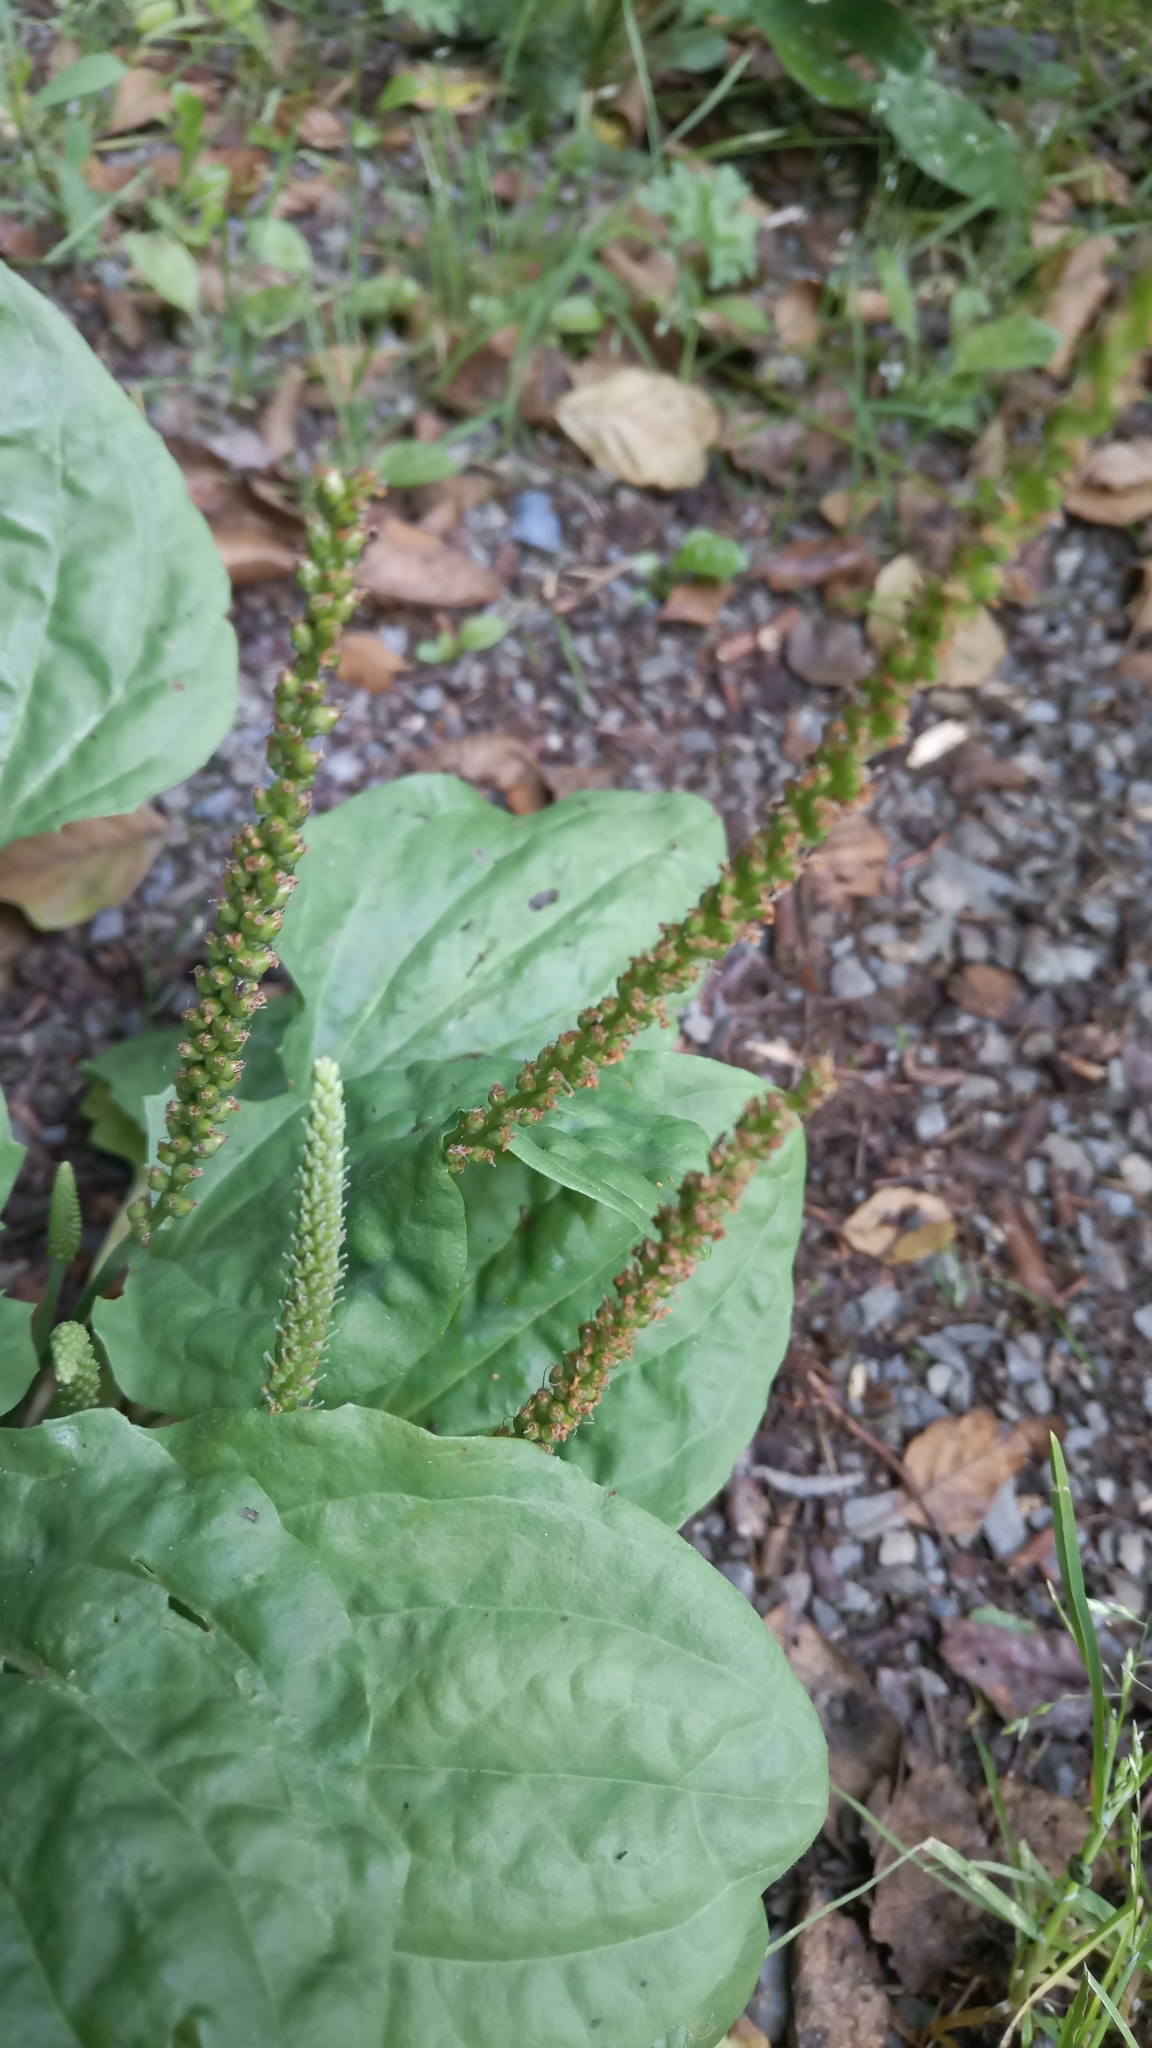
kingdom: Plantae
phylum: Tracheophyta
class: Magnoliopsida
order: Lamiales
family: Plantaginaceae
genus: Plantago
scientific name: Plantago major
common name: Common plantain
